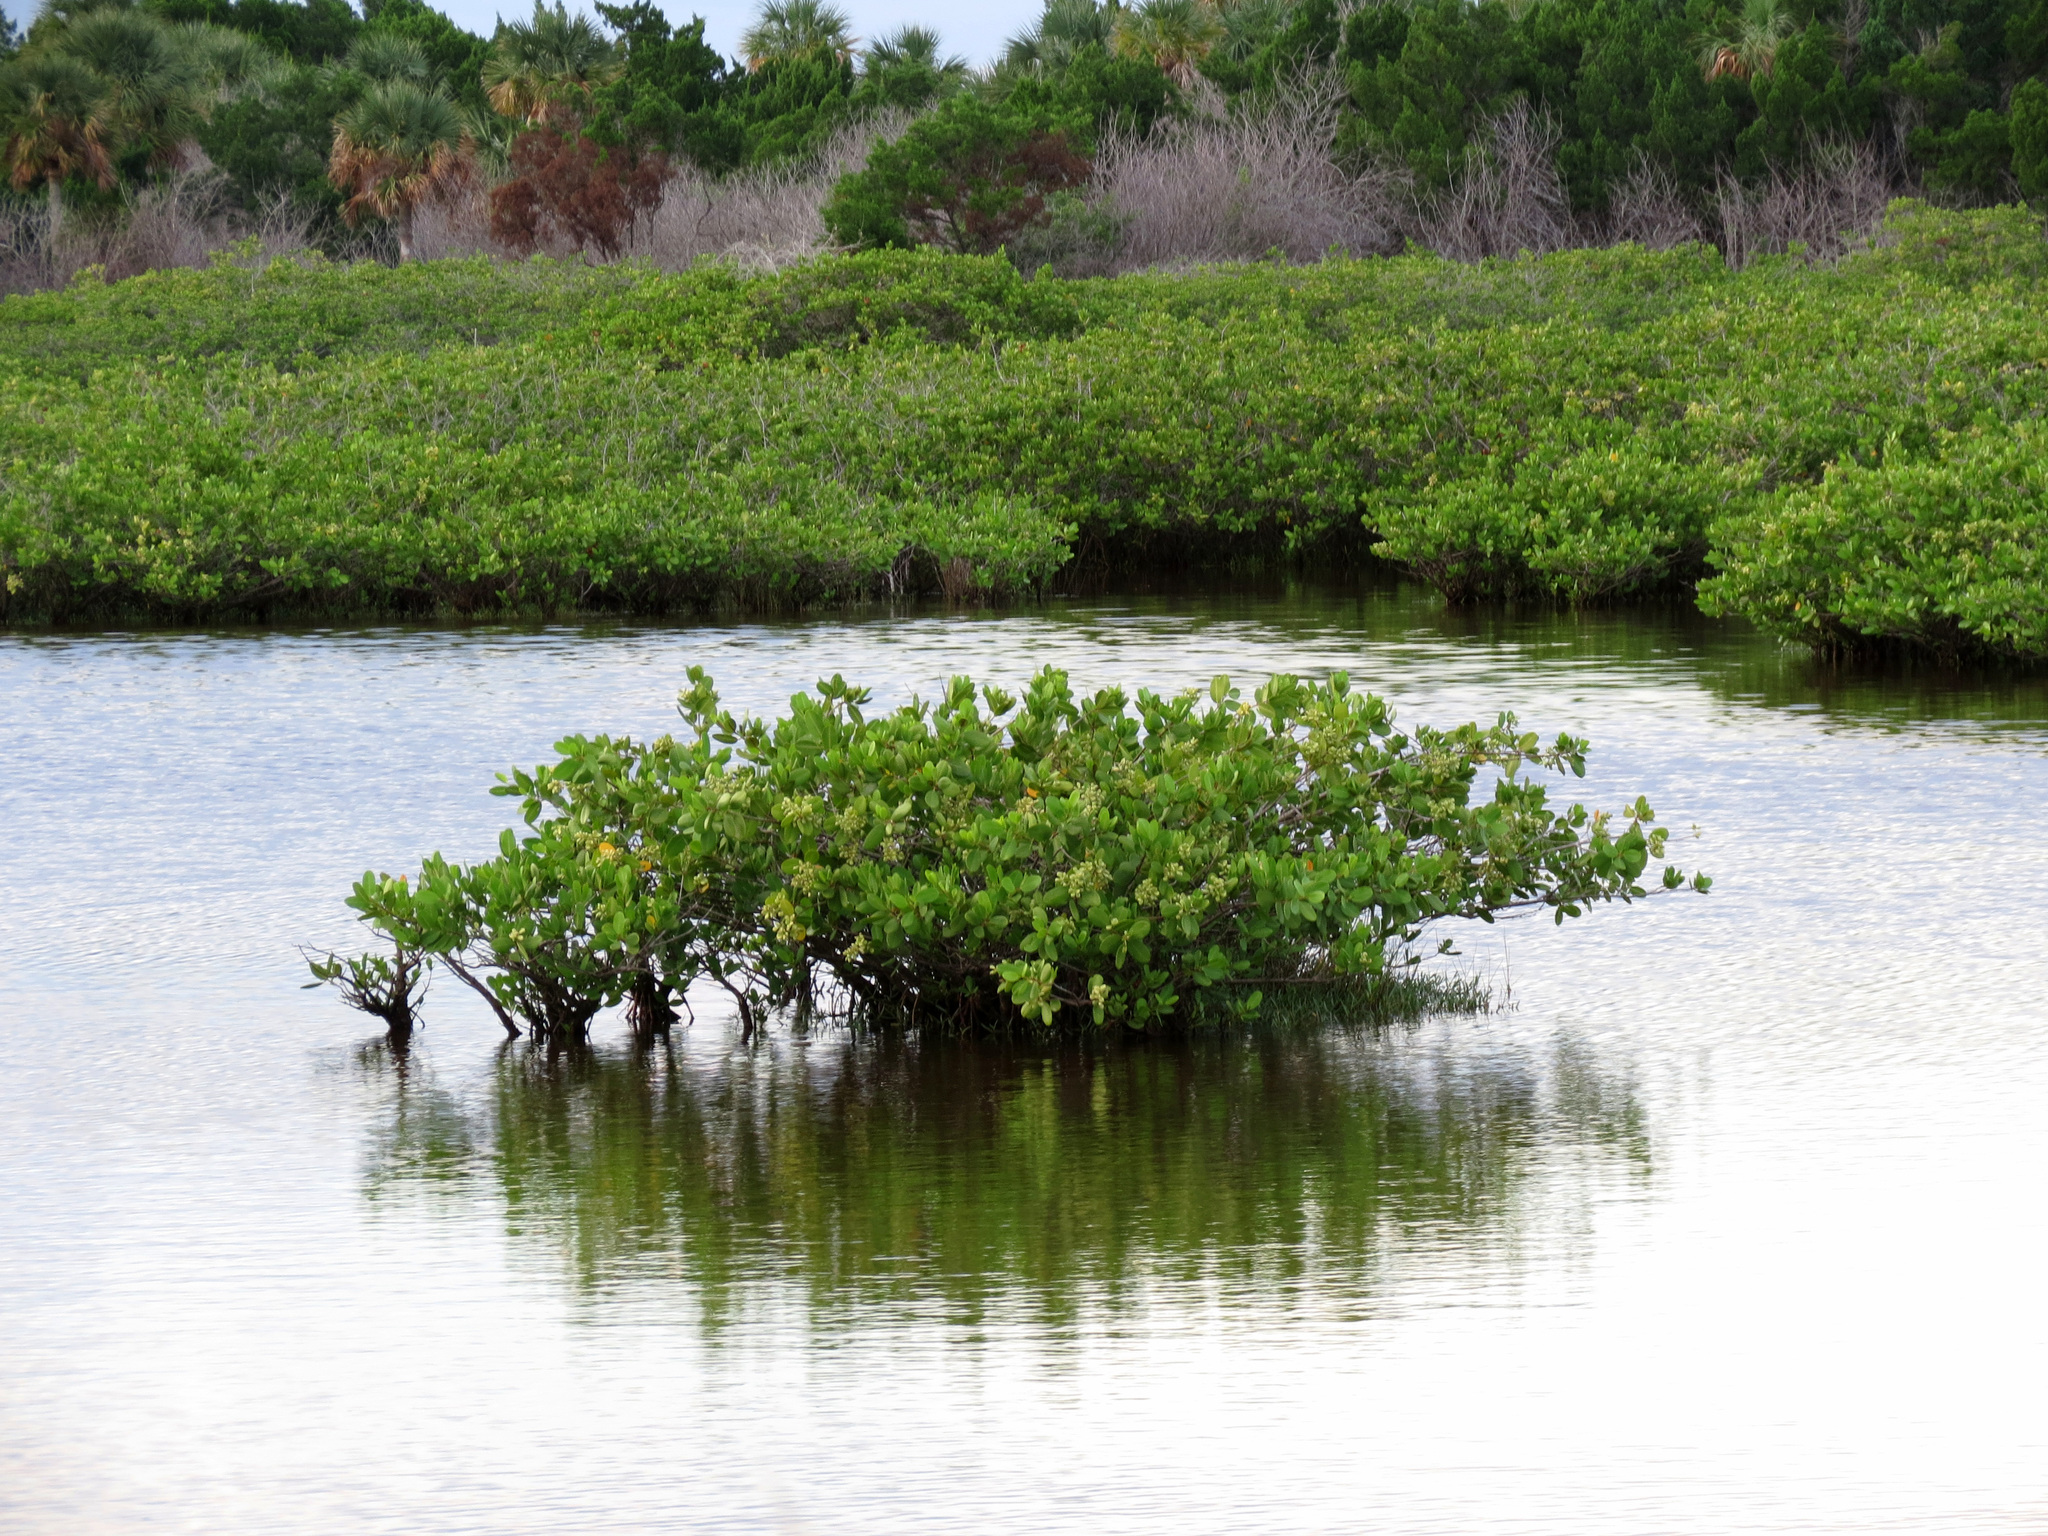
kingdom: Plantae
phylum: Tracheophyta
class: Magnoliopsida
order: Myrtales
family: Combretaceae
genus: Laguncularia
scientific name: Laguncularia racemosa
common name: White mangrove
